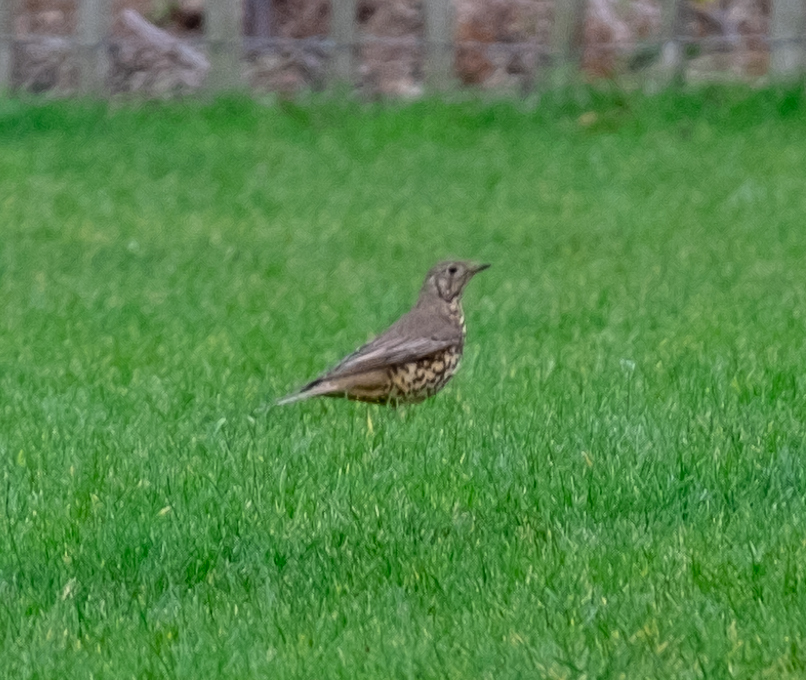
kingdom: Animalia
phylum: Chordata
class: Aves
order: Passeriformes
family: Turdidae
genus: Turdus
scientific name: Turdus viscivorus
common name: Mistle thrush
